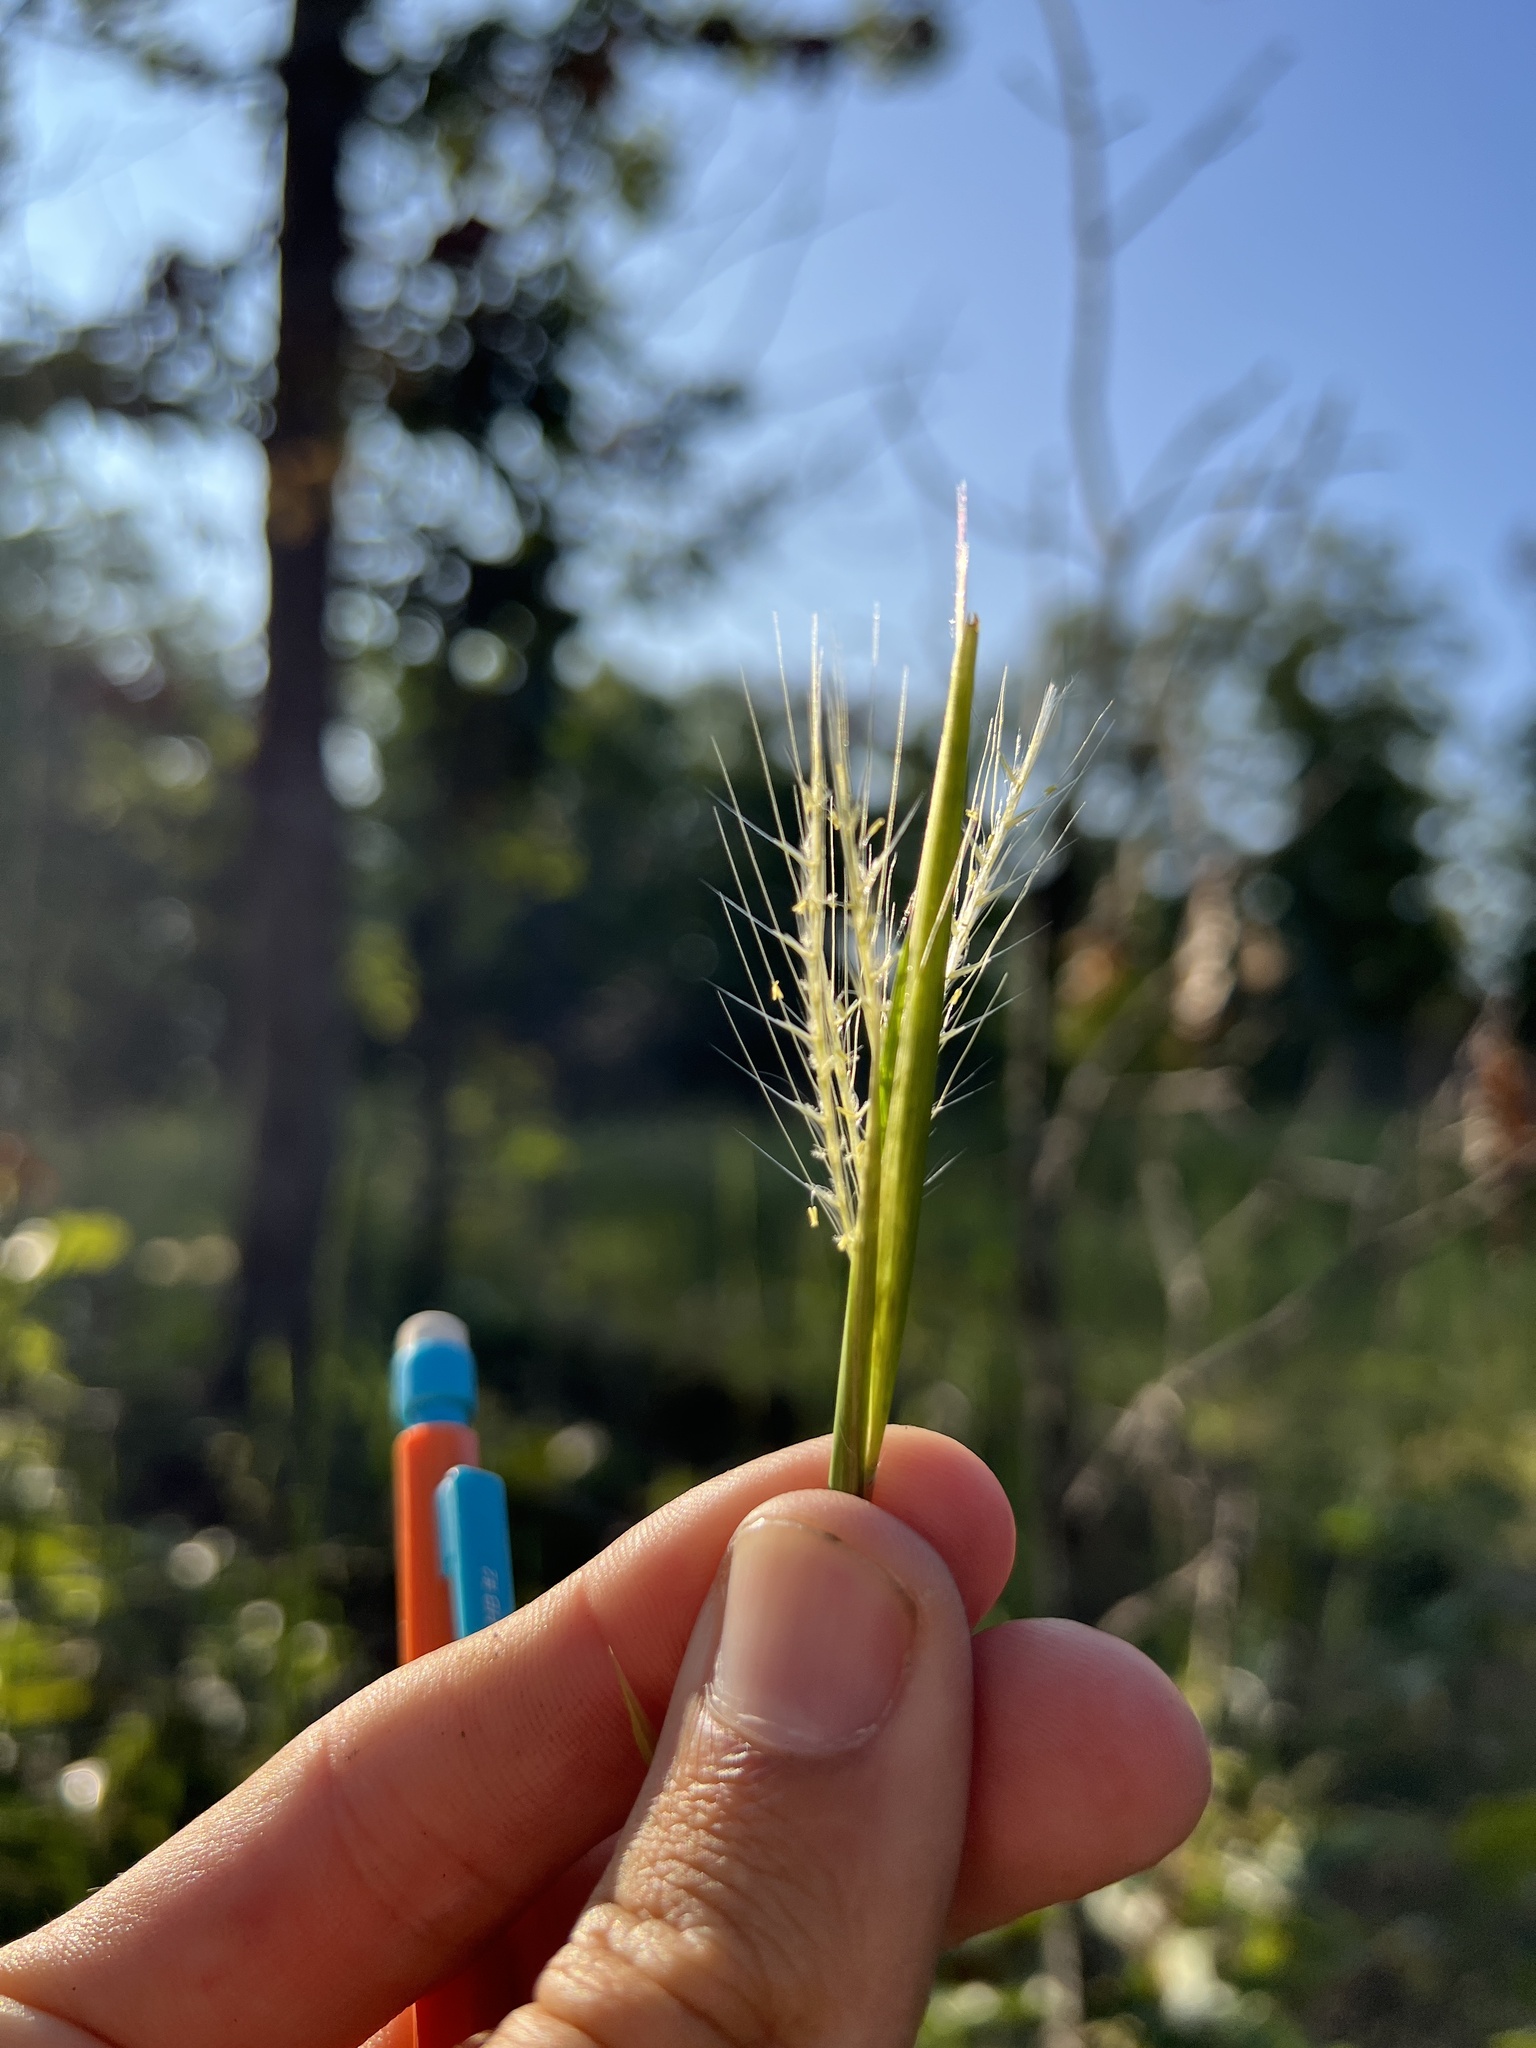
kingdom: Plantae
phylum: Tracheophyta
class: Liliopsida
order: Poales
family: Poaceae
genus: Andropogon
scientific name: Andropogon virginicus
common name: Broomsedge bluestem
